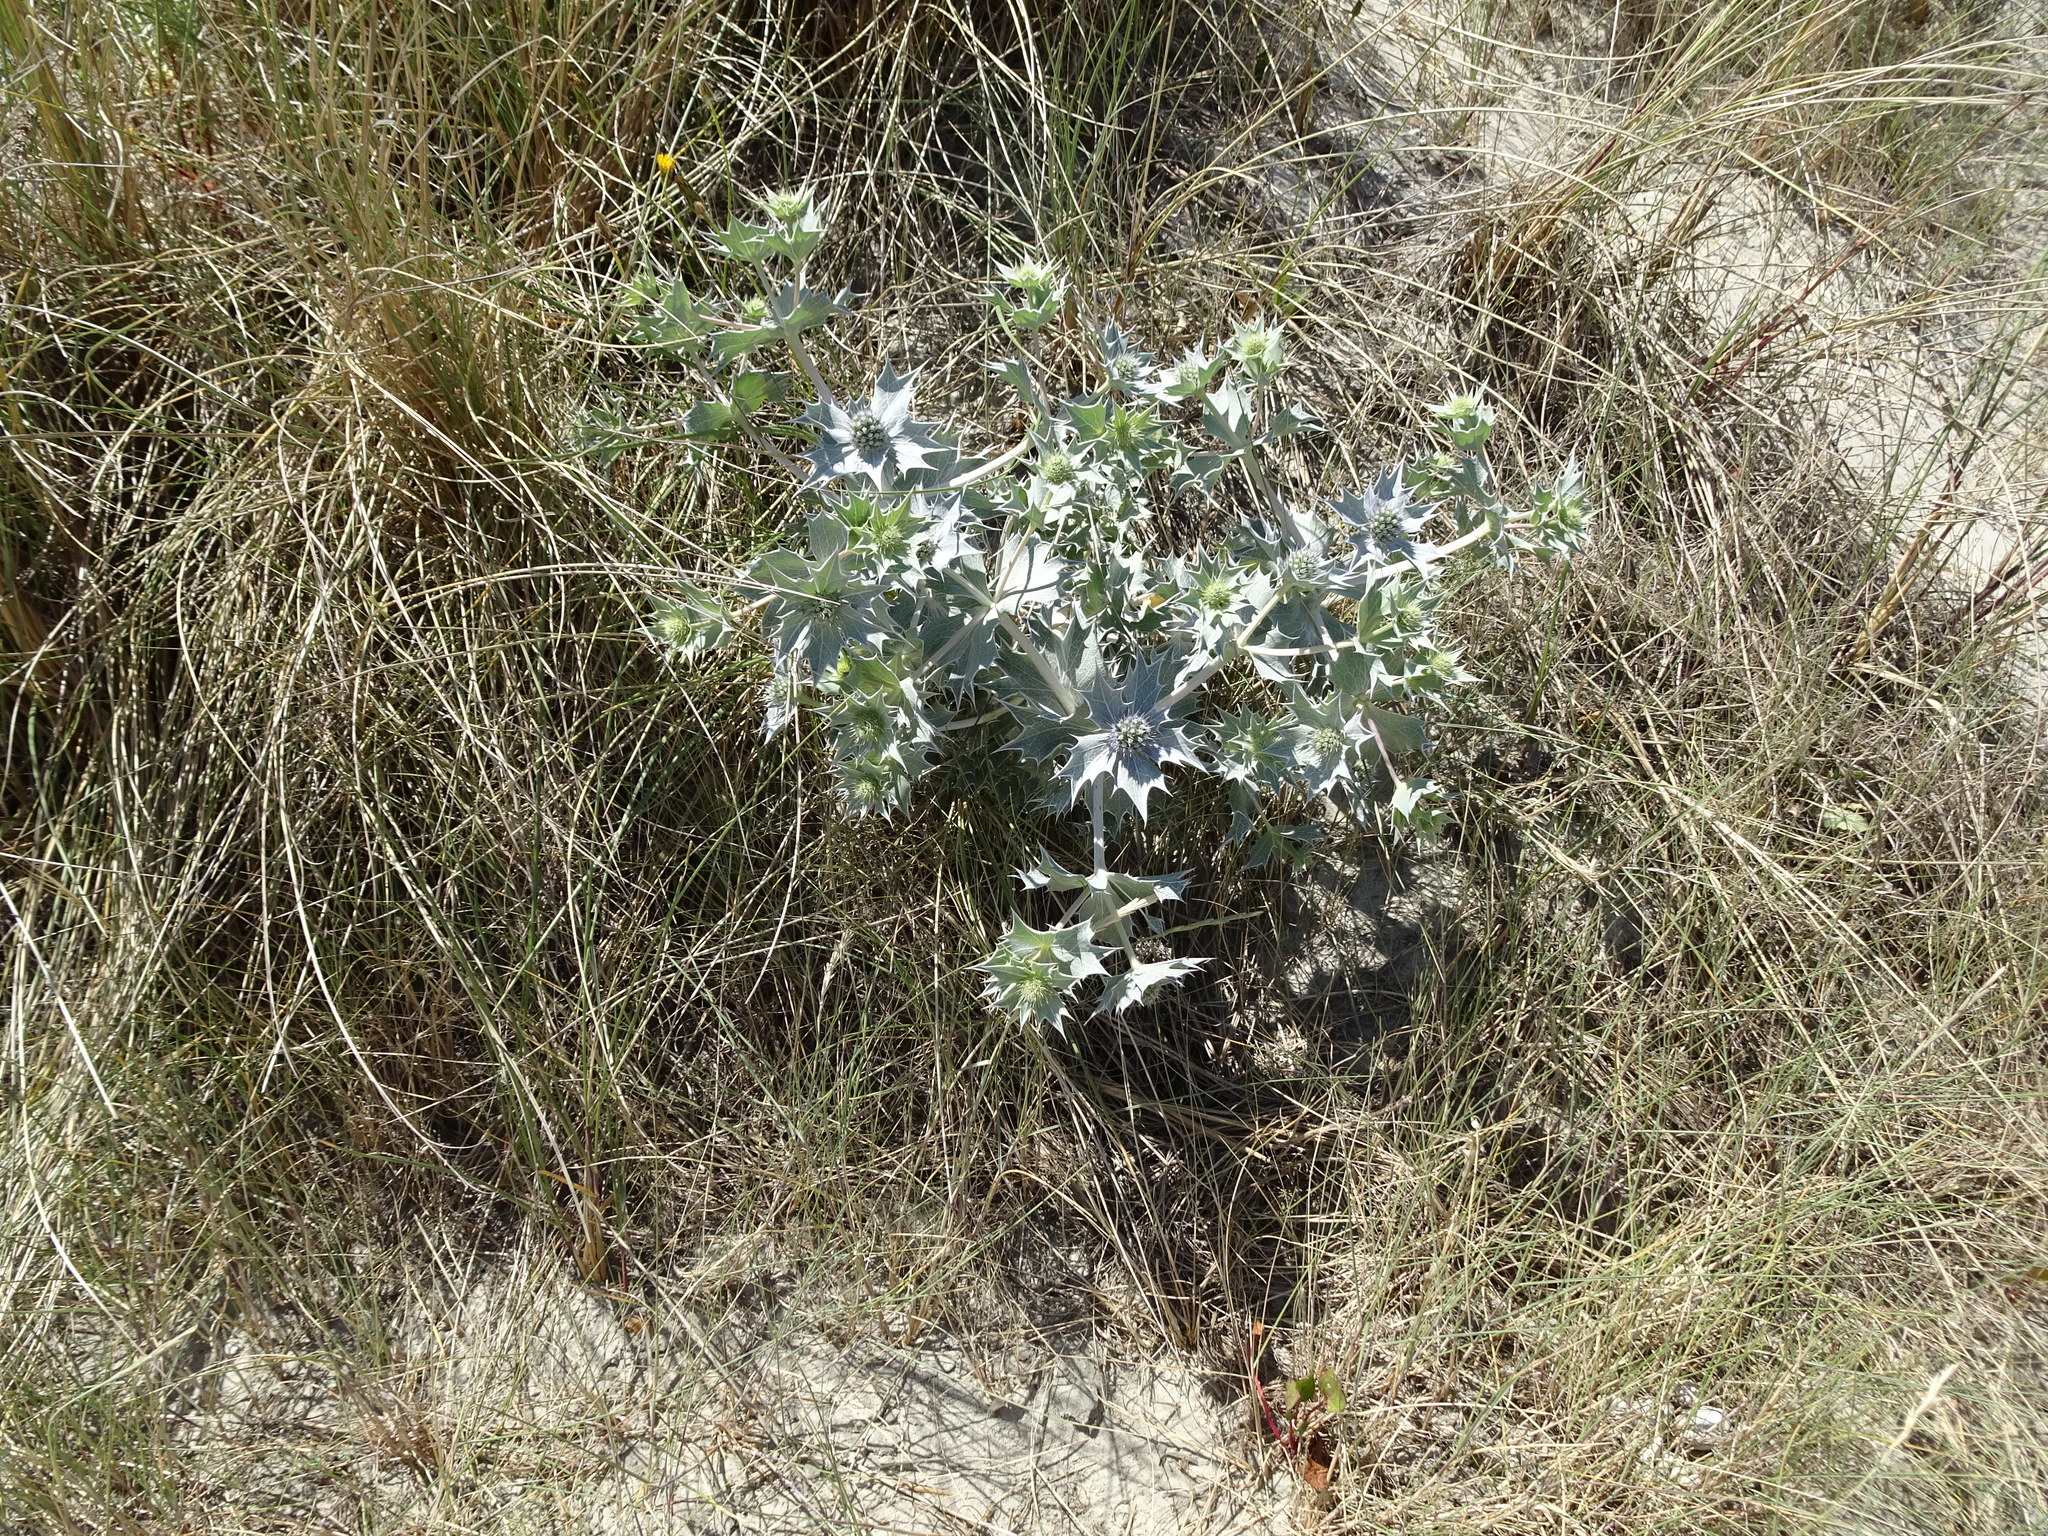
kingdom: Plantae
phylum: Tracheophyta
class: Magnoliopsida
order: Apiales
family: Apiaceae
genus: Eryngium
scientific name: Eryngium maritimum
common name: Sea-holly
